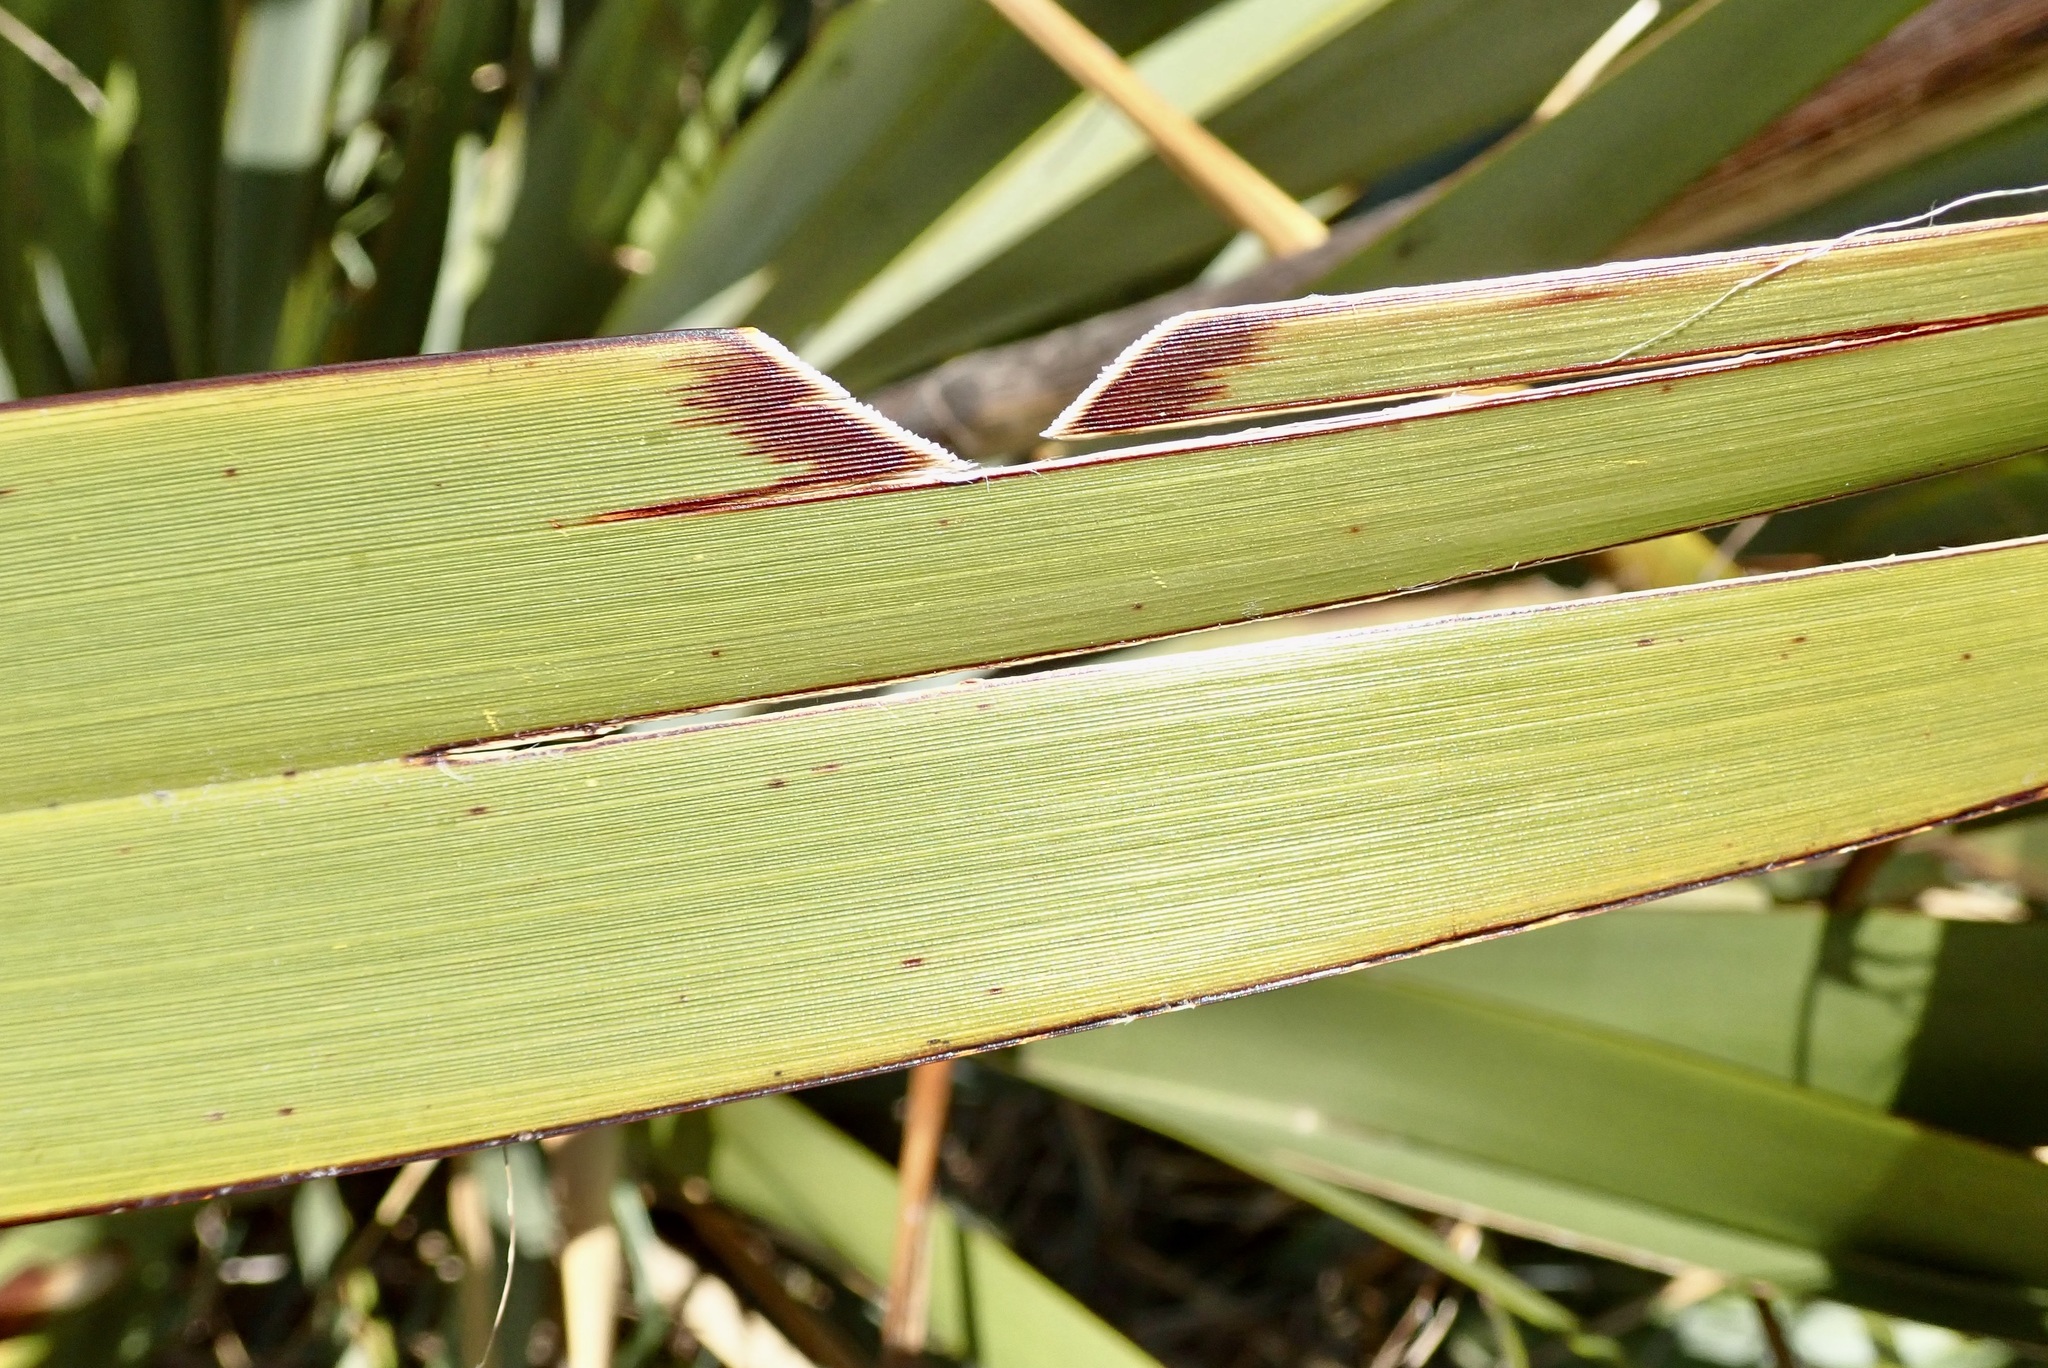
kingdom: Animalia
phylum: Arthropoda
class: Insecta
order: Lepidoptera
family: Noctuidae
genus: Ichneutica
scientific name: Ichneutica
